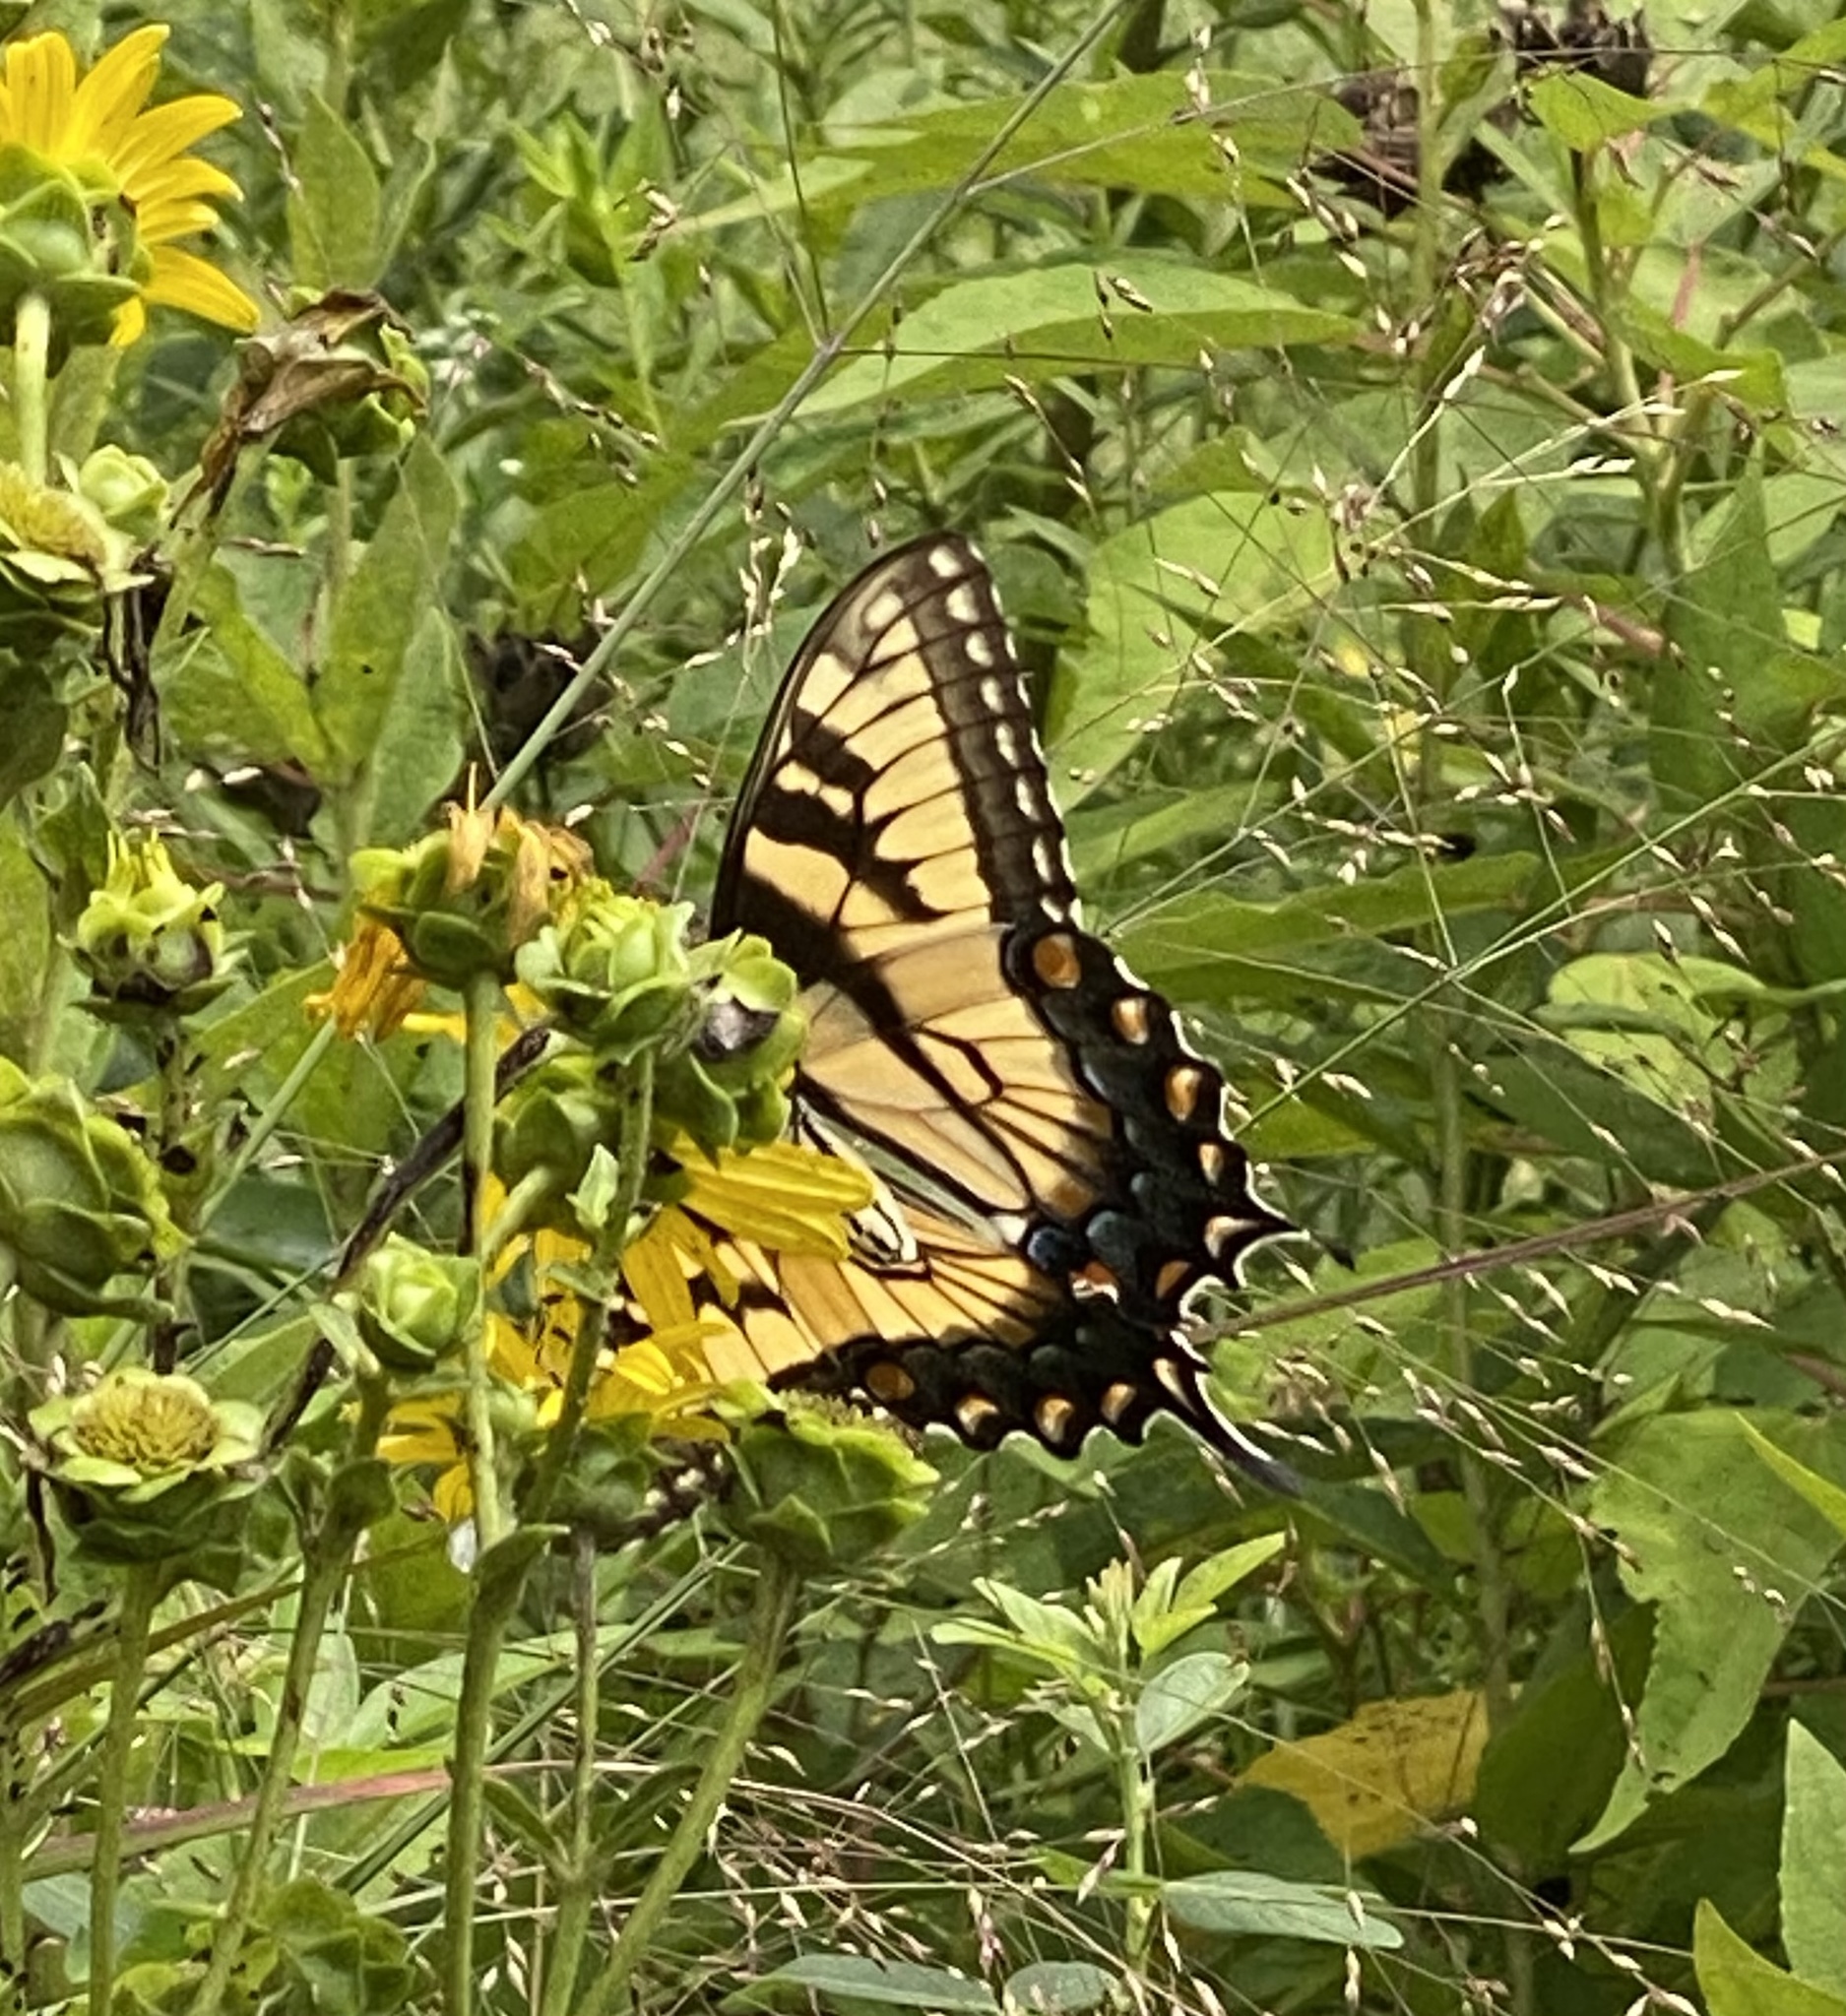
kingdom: Animalia
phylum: Arthropoda
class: Insecta
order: Lepidoptera
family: Papilionidae
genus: Papilio
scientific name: Papilio glaucus
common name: Tiger swallowtail
